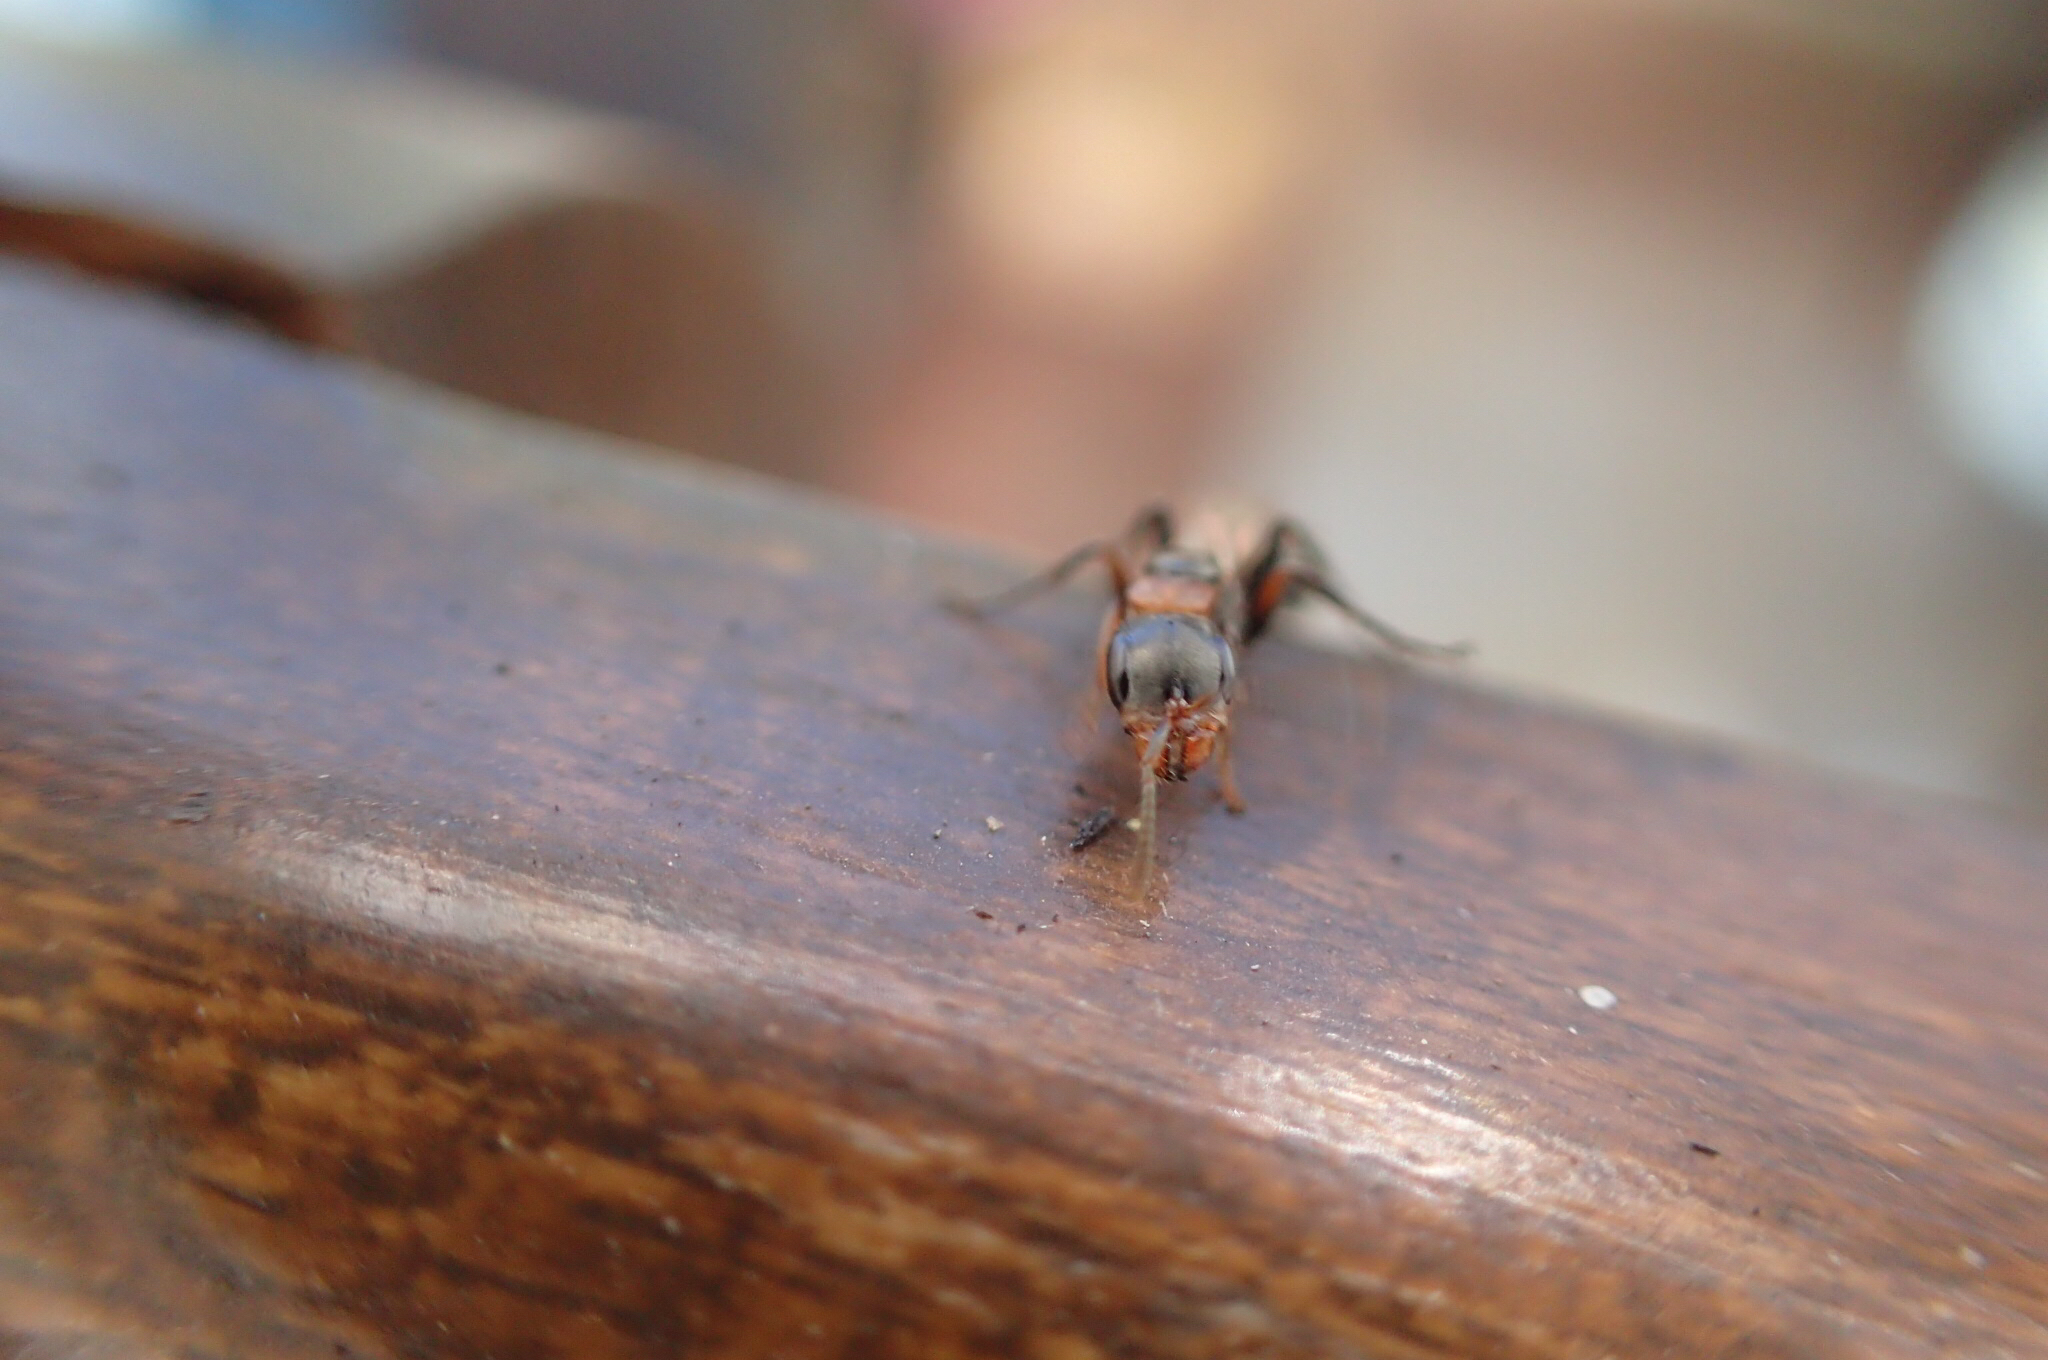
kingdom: Animalia
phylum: Arthropoda
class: Insecta
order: Hymenoptera
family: Formicidae
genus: Pseudomyrmex
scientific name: Pseudomyrmex gracilis
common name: Graceful twig ant
